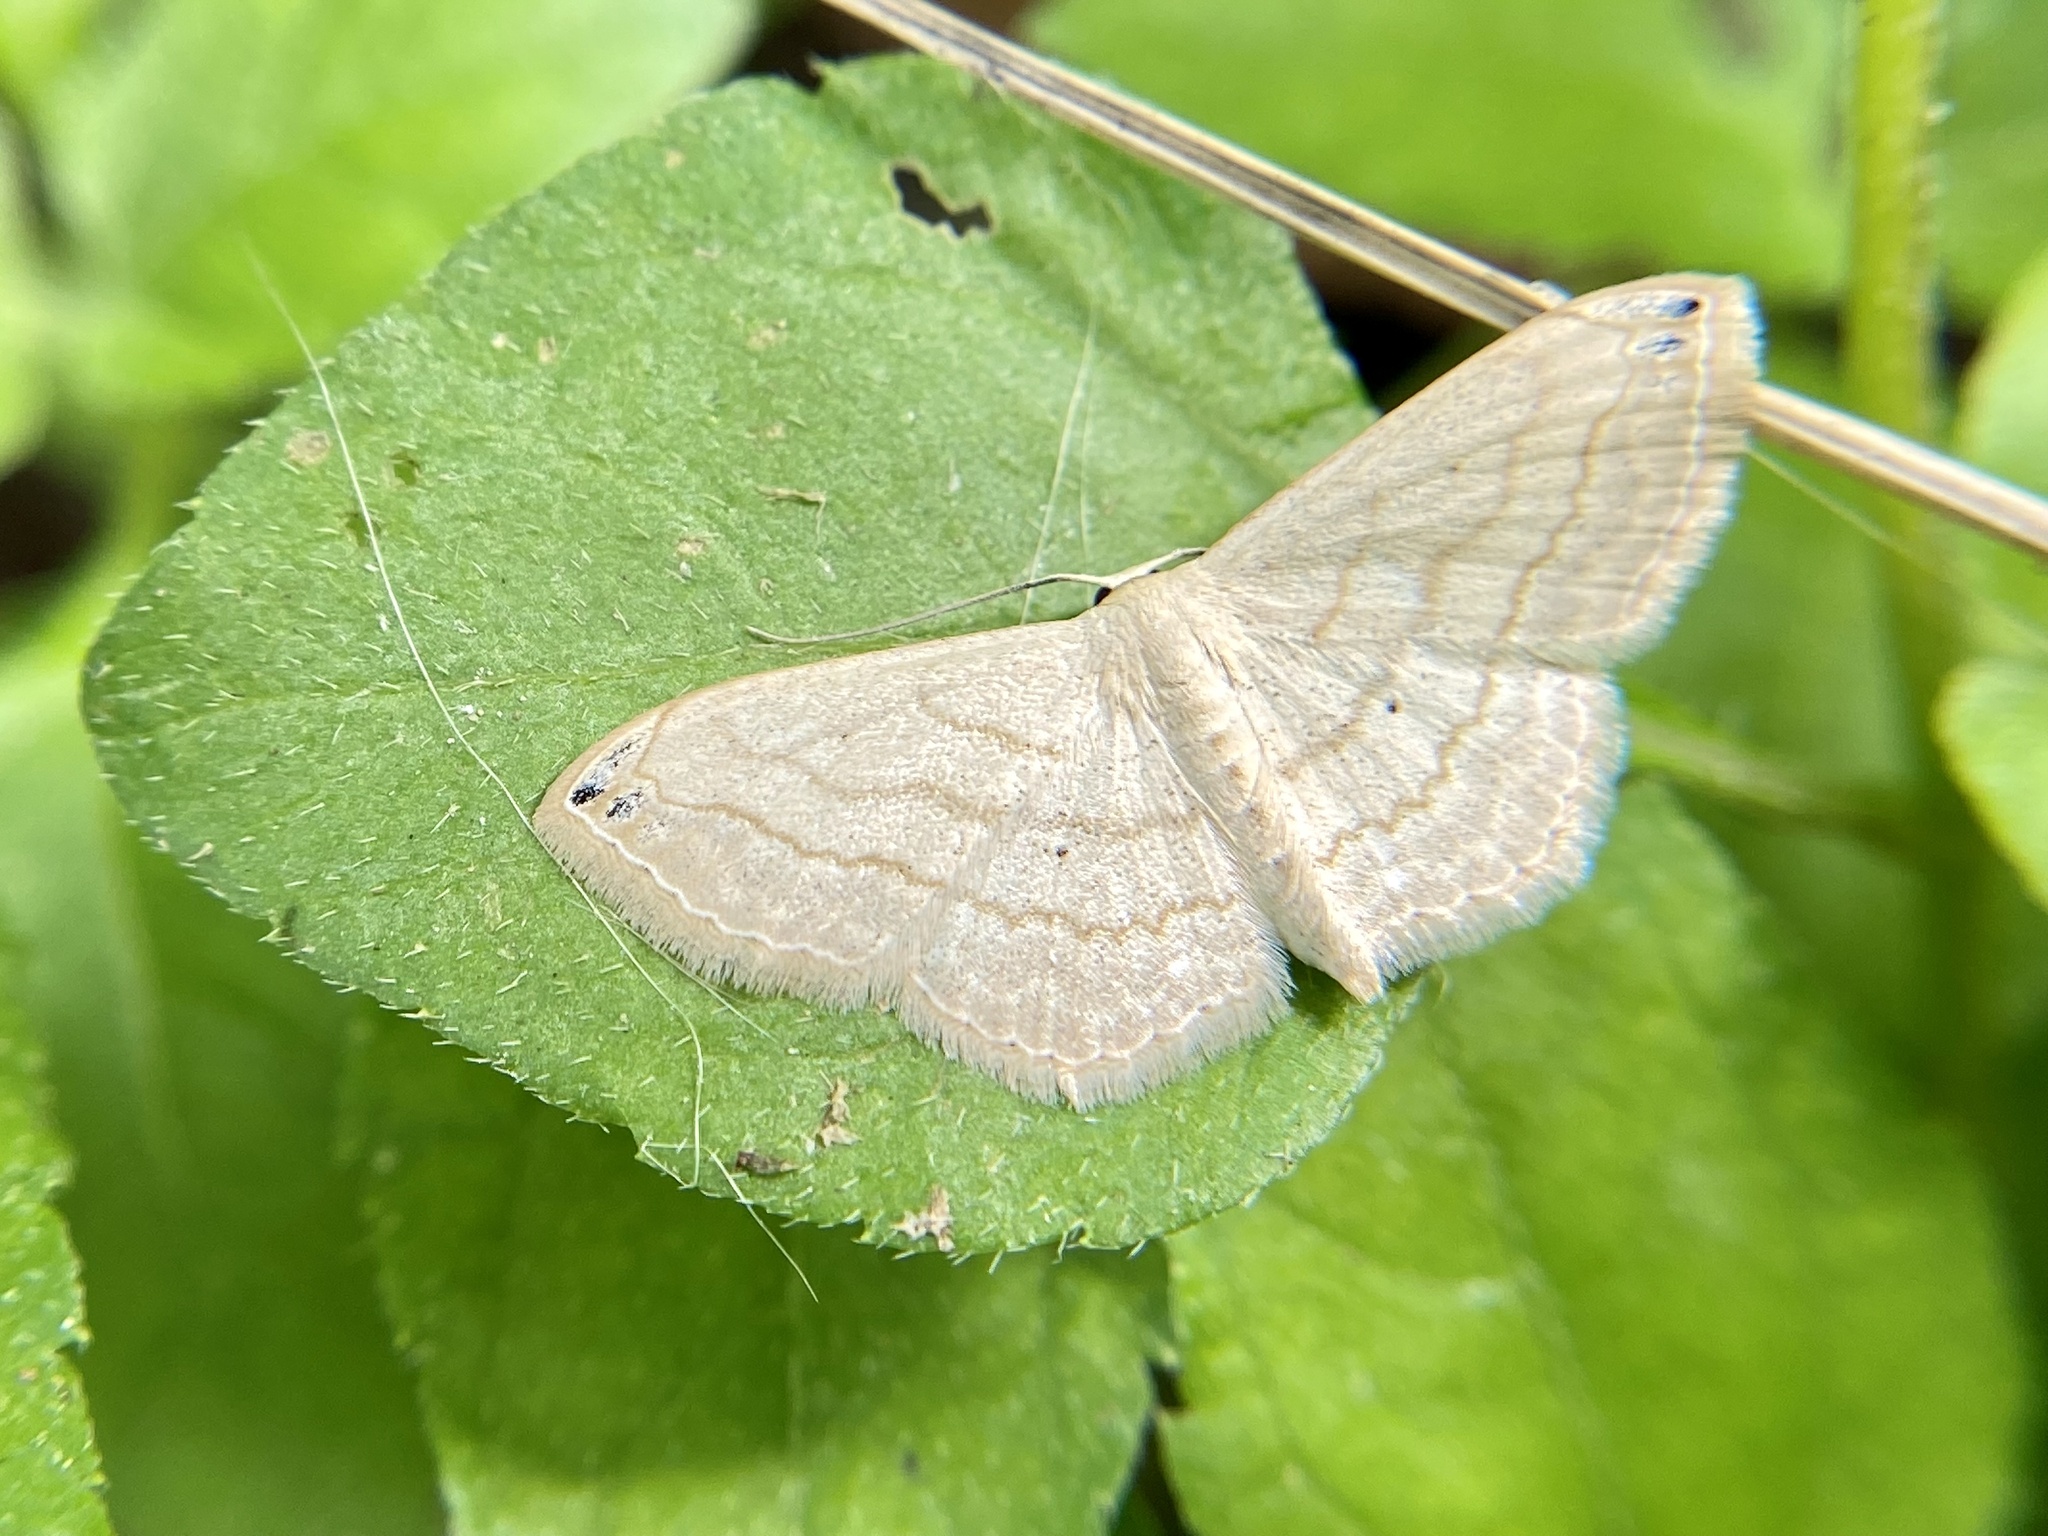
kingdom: Animalia
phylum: Arthropoda
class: Insecta
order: Lepidoptera
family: Geometridae
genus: Scopula
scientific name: Scopula umbilicata
